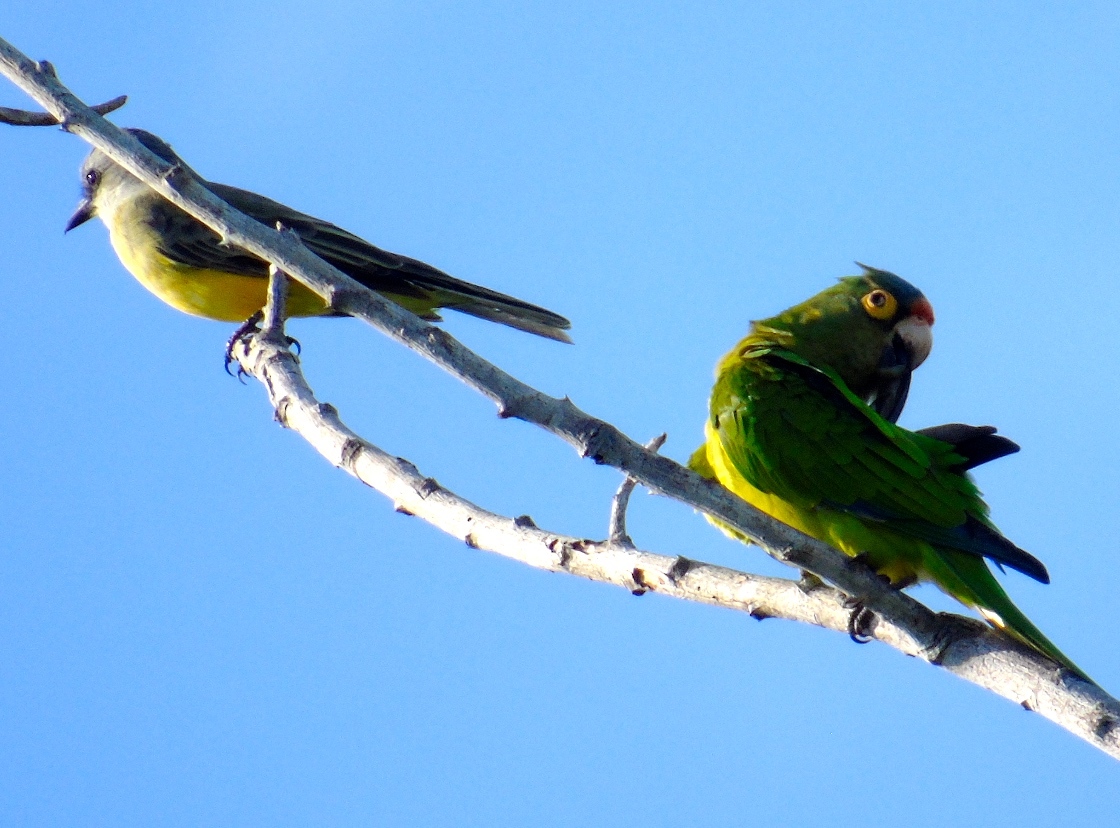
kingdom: Animalia
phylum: Chordata
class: Aves
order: Passeriformes
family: Tyrannidae
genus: Tyrannus
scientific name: Tyrannus melancholicus
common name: Tropical kingbird
